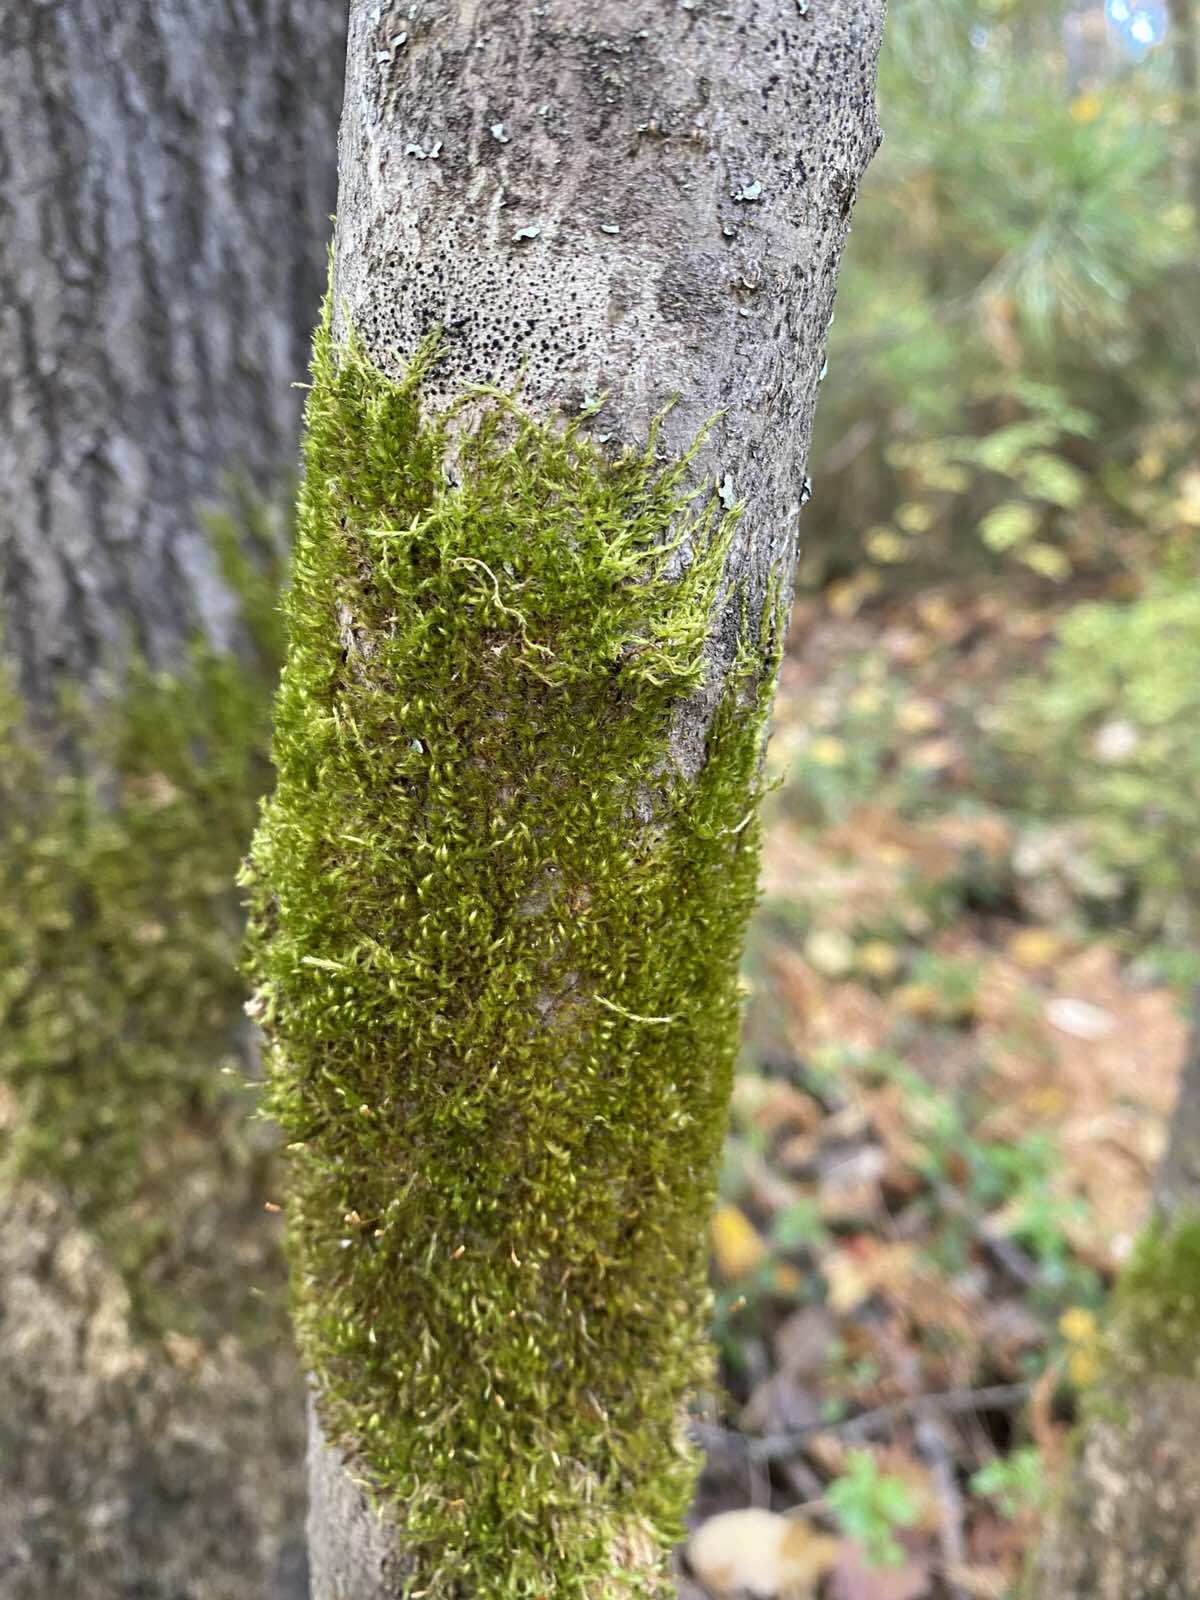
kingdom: Plantae
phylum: Bryophyta
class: Bryopsida
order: Hypnales
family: Pylaisiaceae
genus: Pylaisia
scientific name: Pylaisia polyantha
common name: Many-flowered leskea
